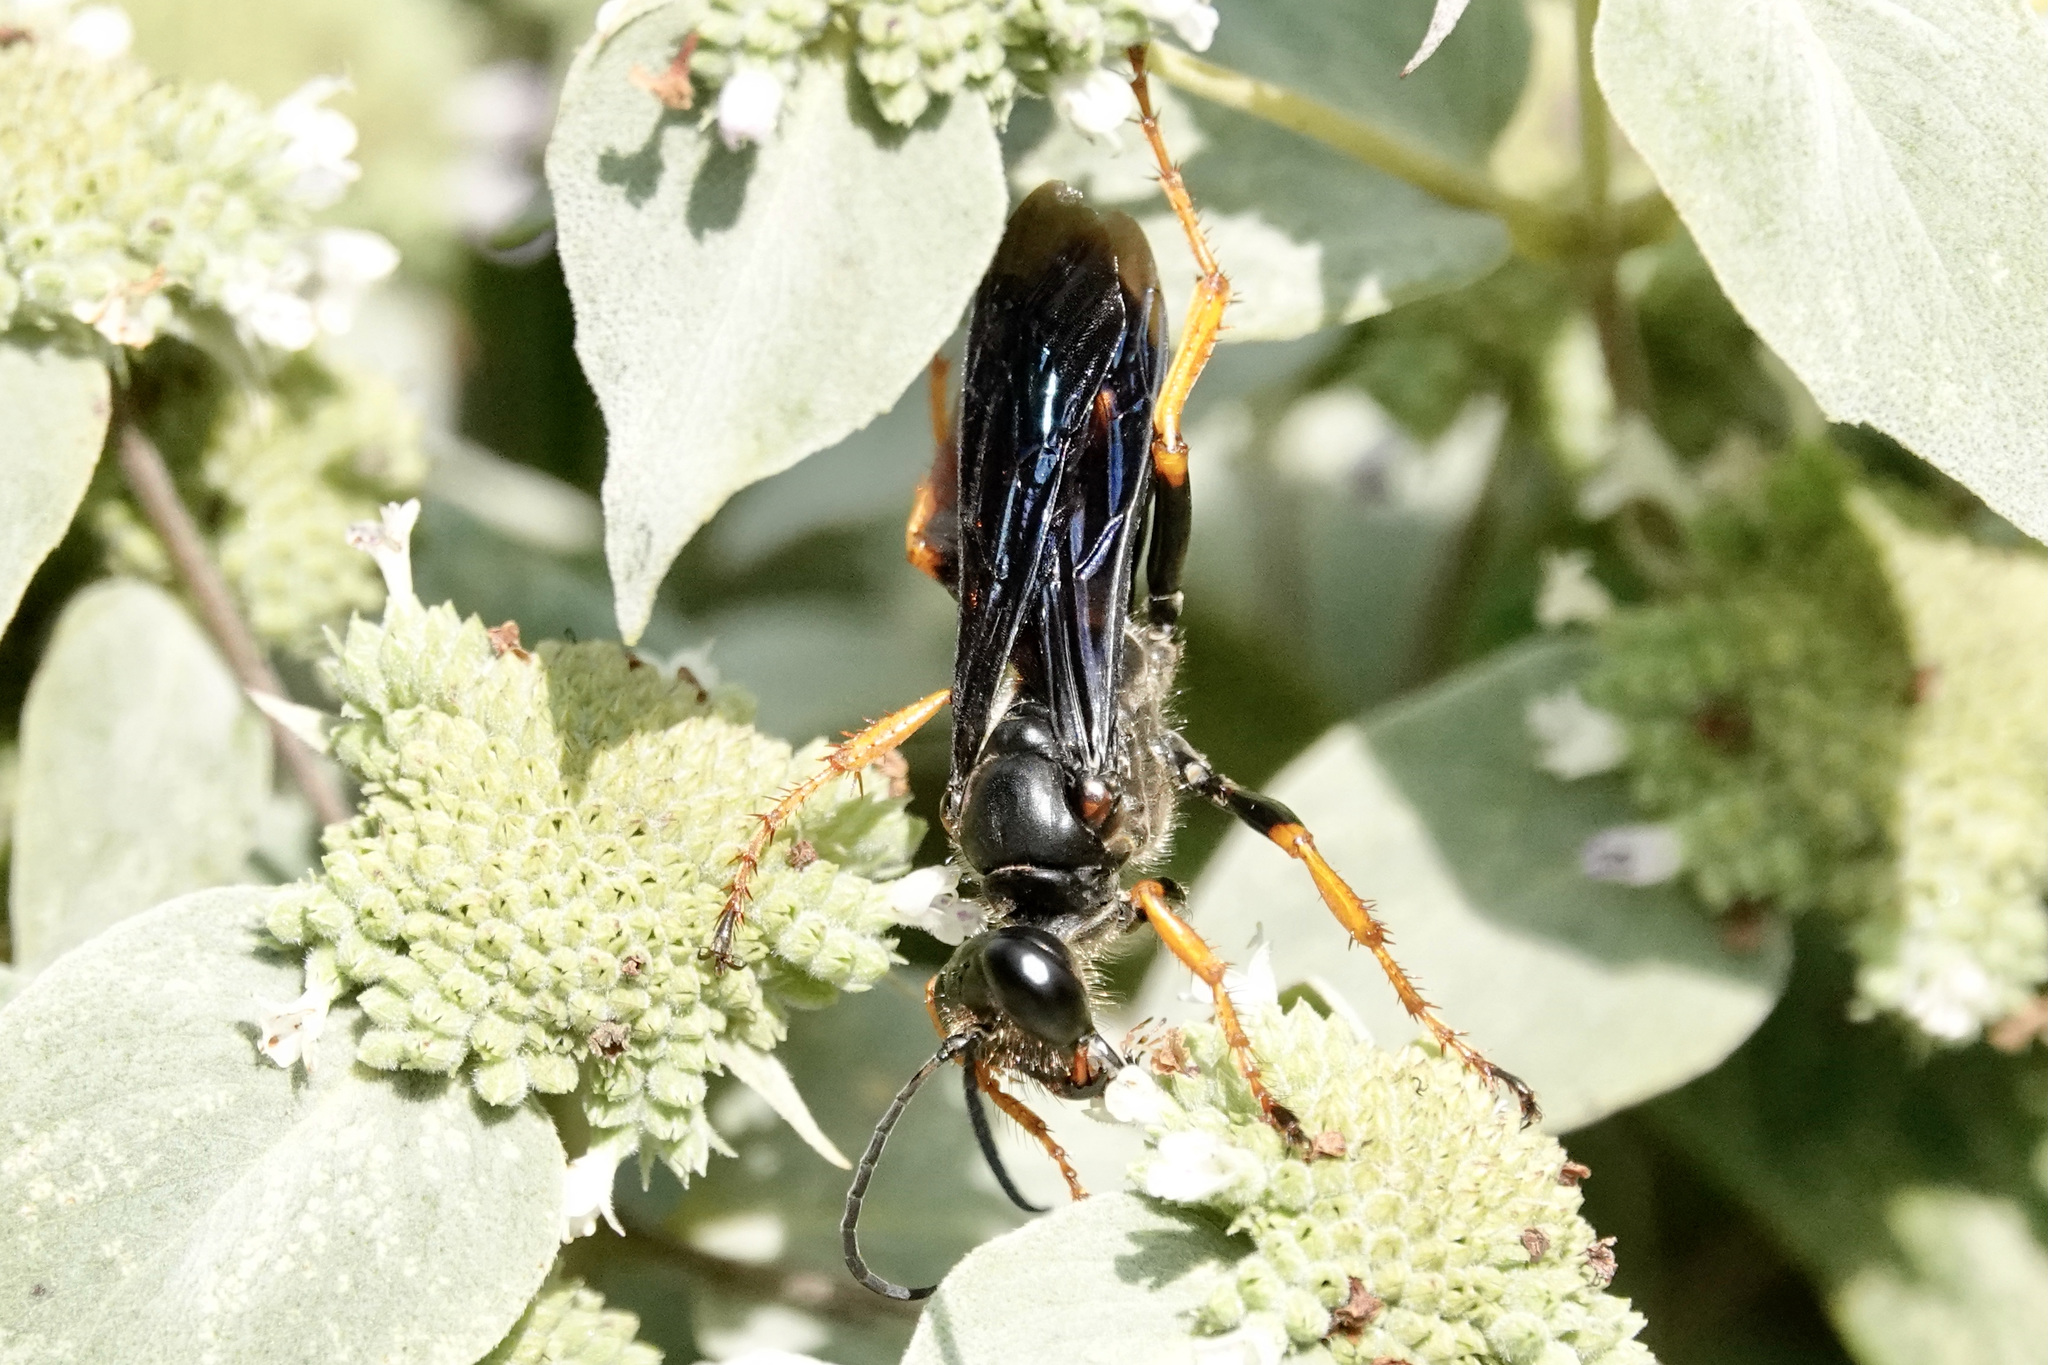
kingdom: Animalia
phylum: Arthropoda
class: Insecta
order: Hymenoptera
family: Sphecidae
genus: Sphex
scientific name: Sphex nudus
